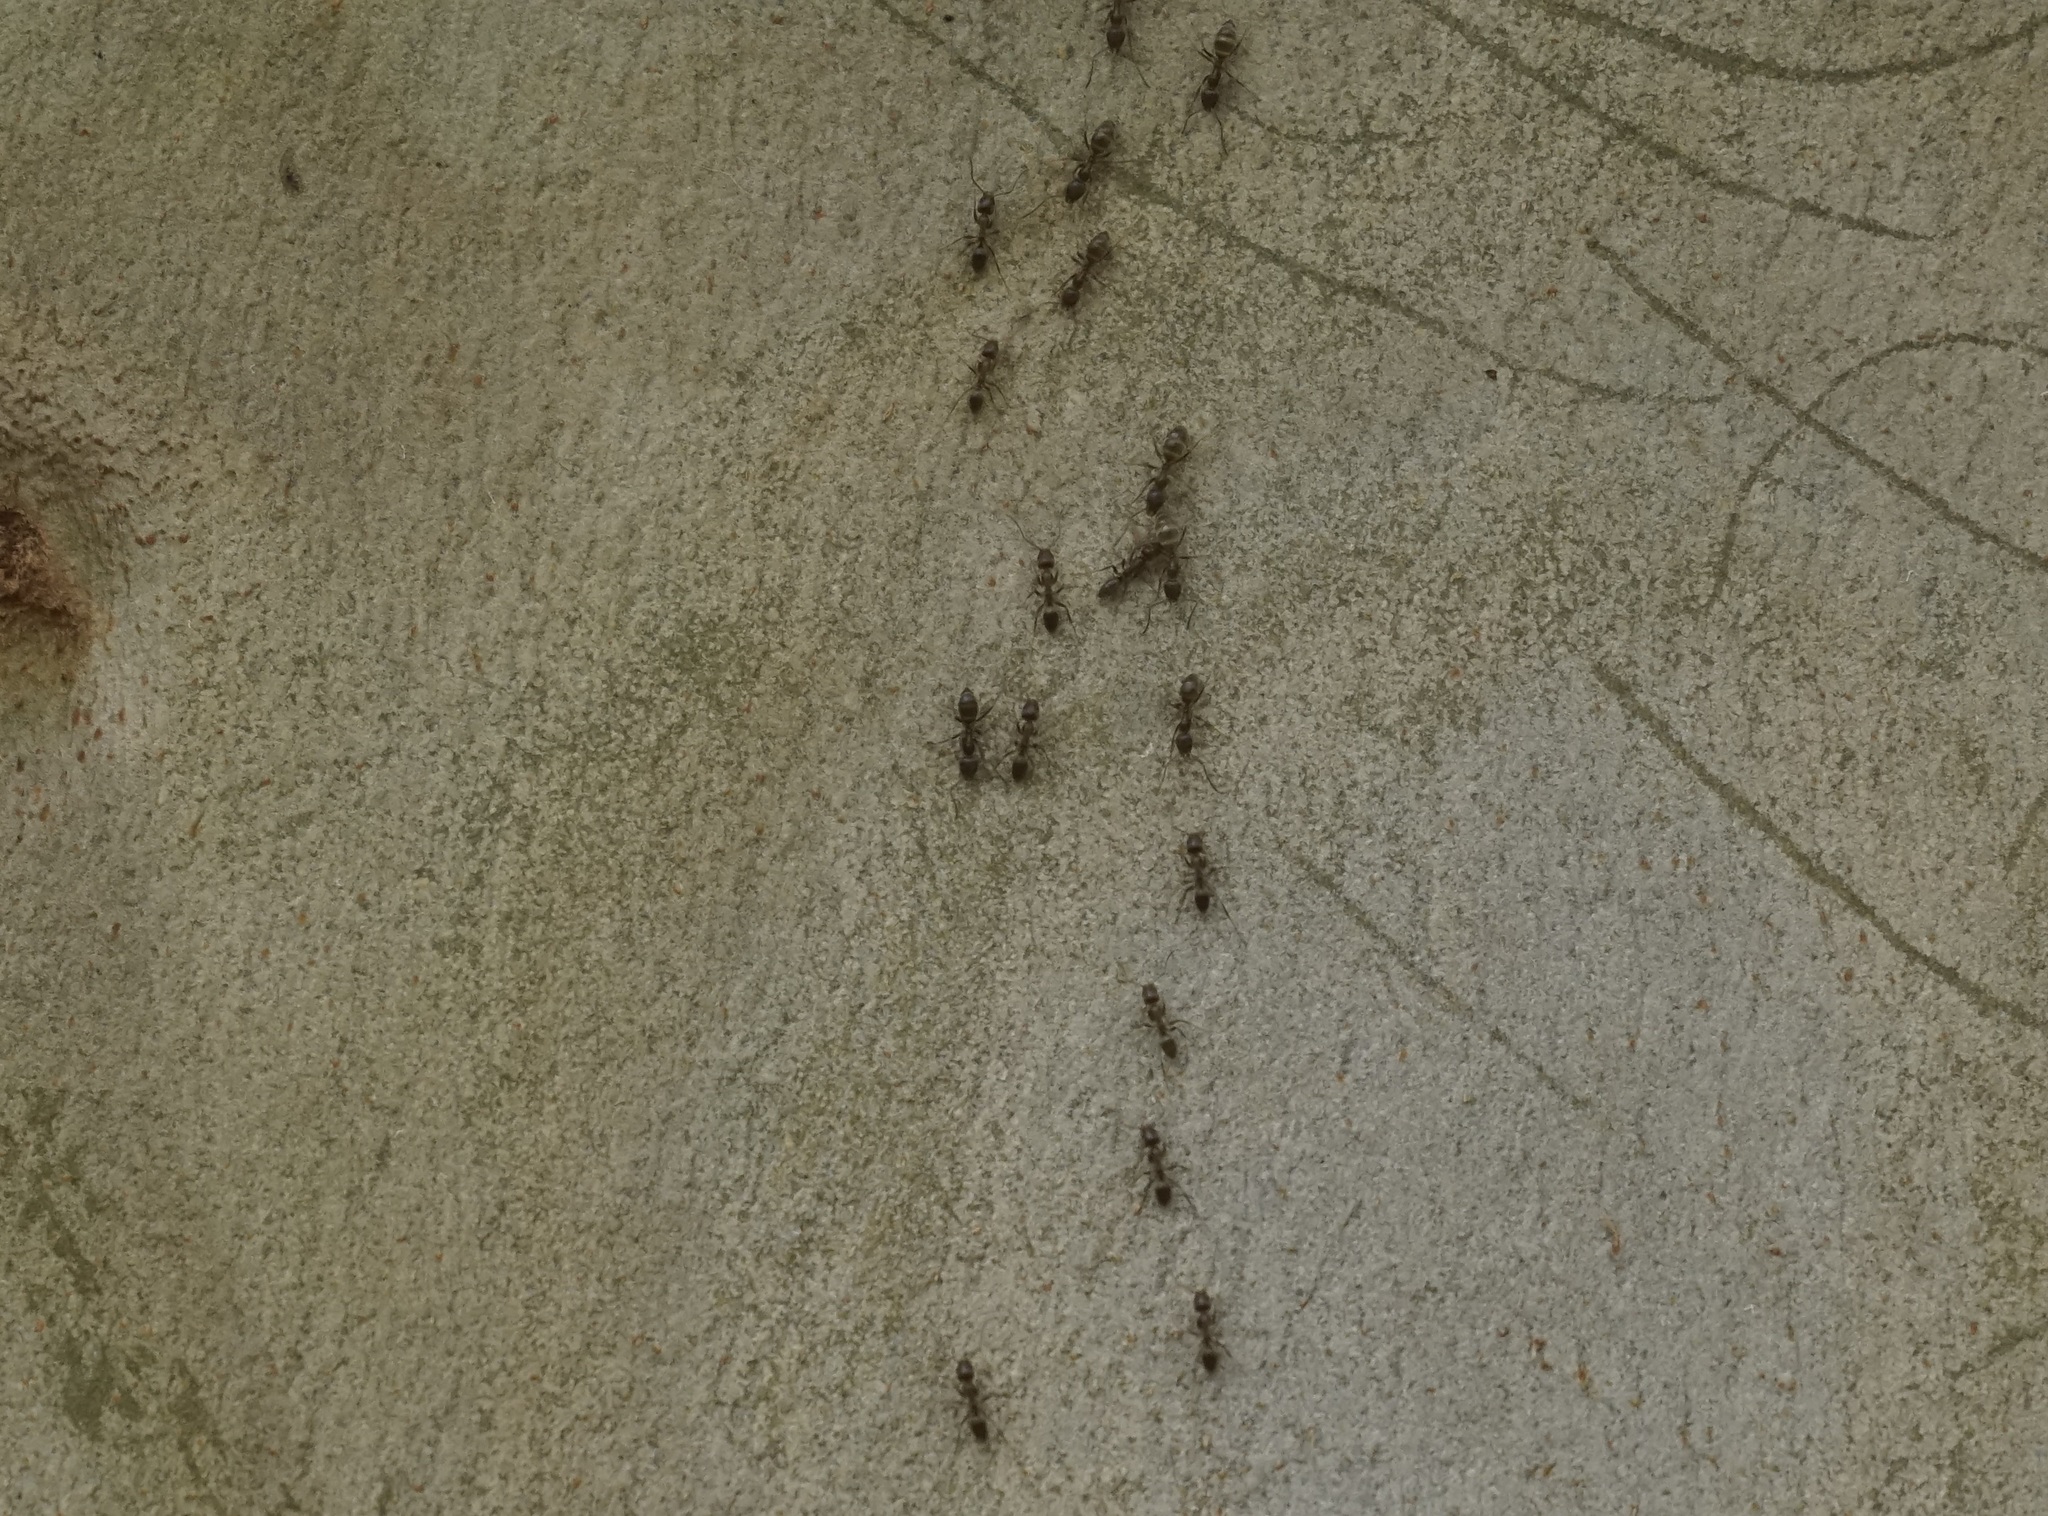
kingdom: Animalia
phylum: Arthropoda
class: Insecta
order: Hymenoptera
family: Formicidae
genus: Linepithema
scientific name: Linepithema humile
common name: Argentine ant
